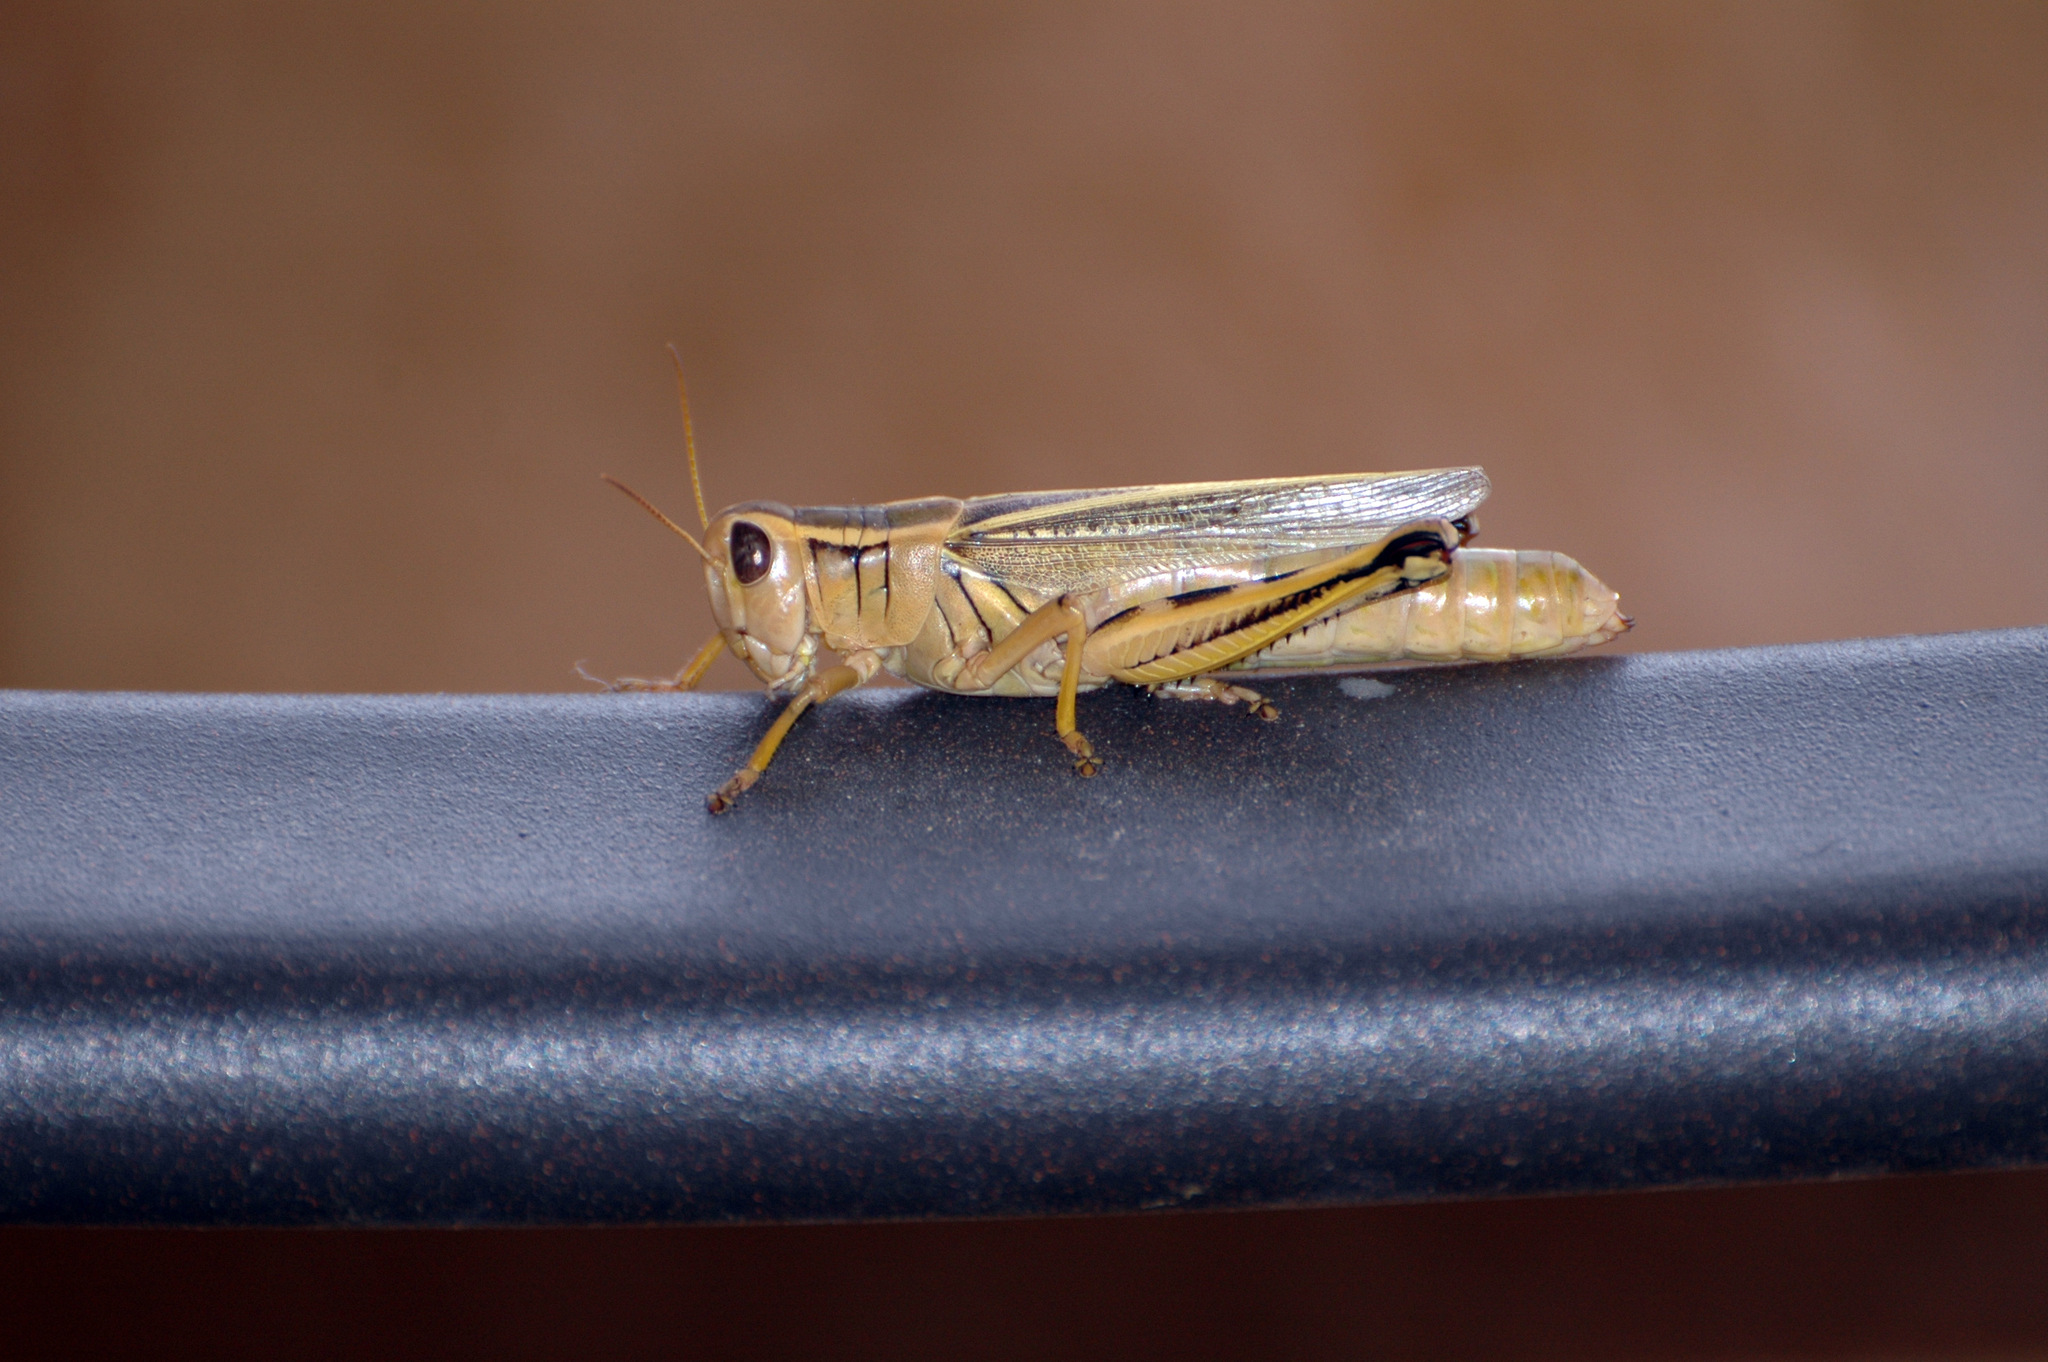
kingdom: Animalia
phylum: Arthropoda
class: Insecta
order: Orthoptera
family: Acrididae
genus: Melanoplus
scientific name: Melanoplus bivittatus
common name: Two-striped grasshopper
